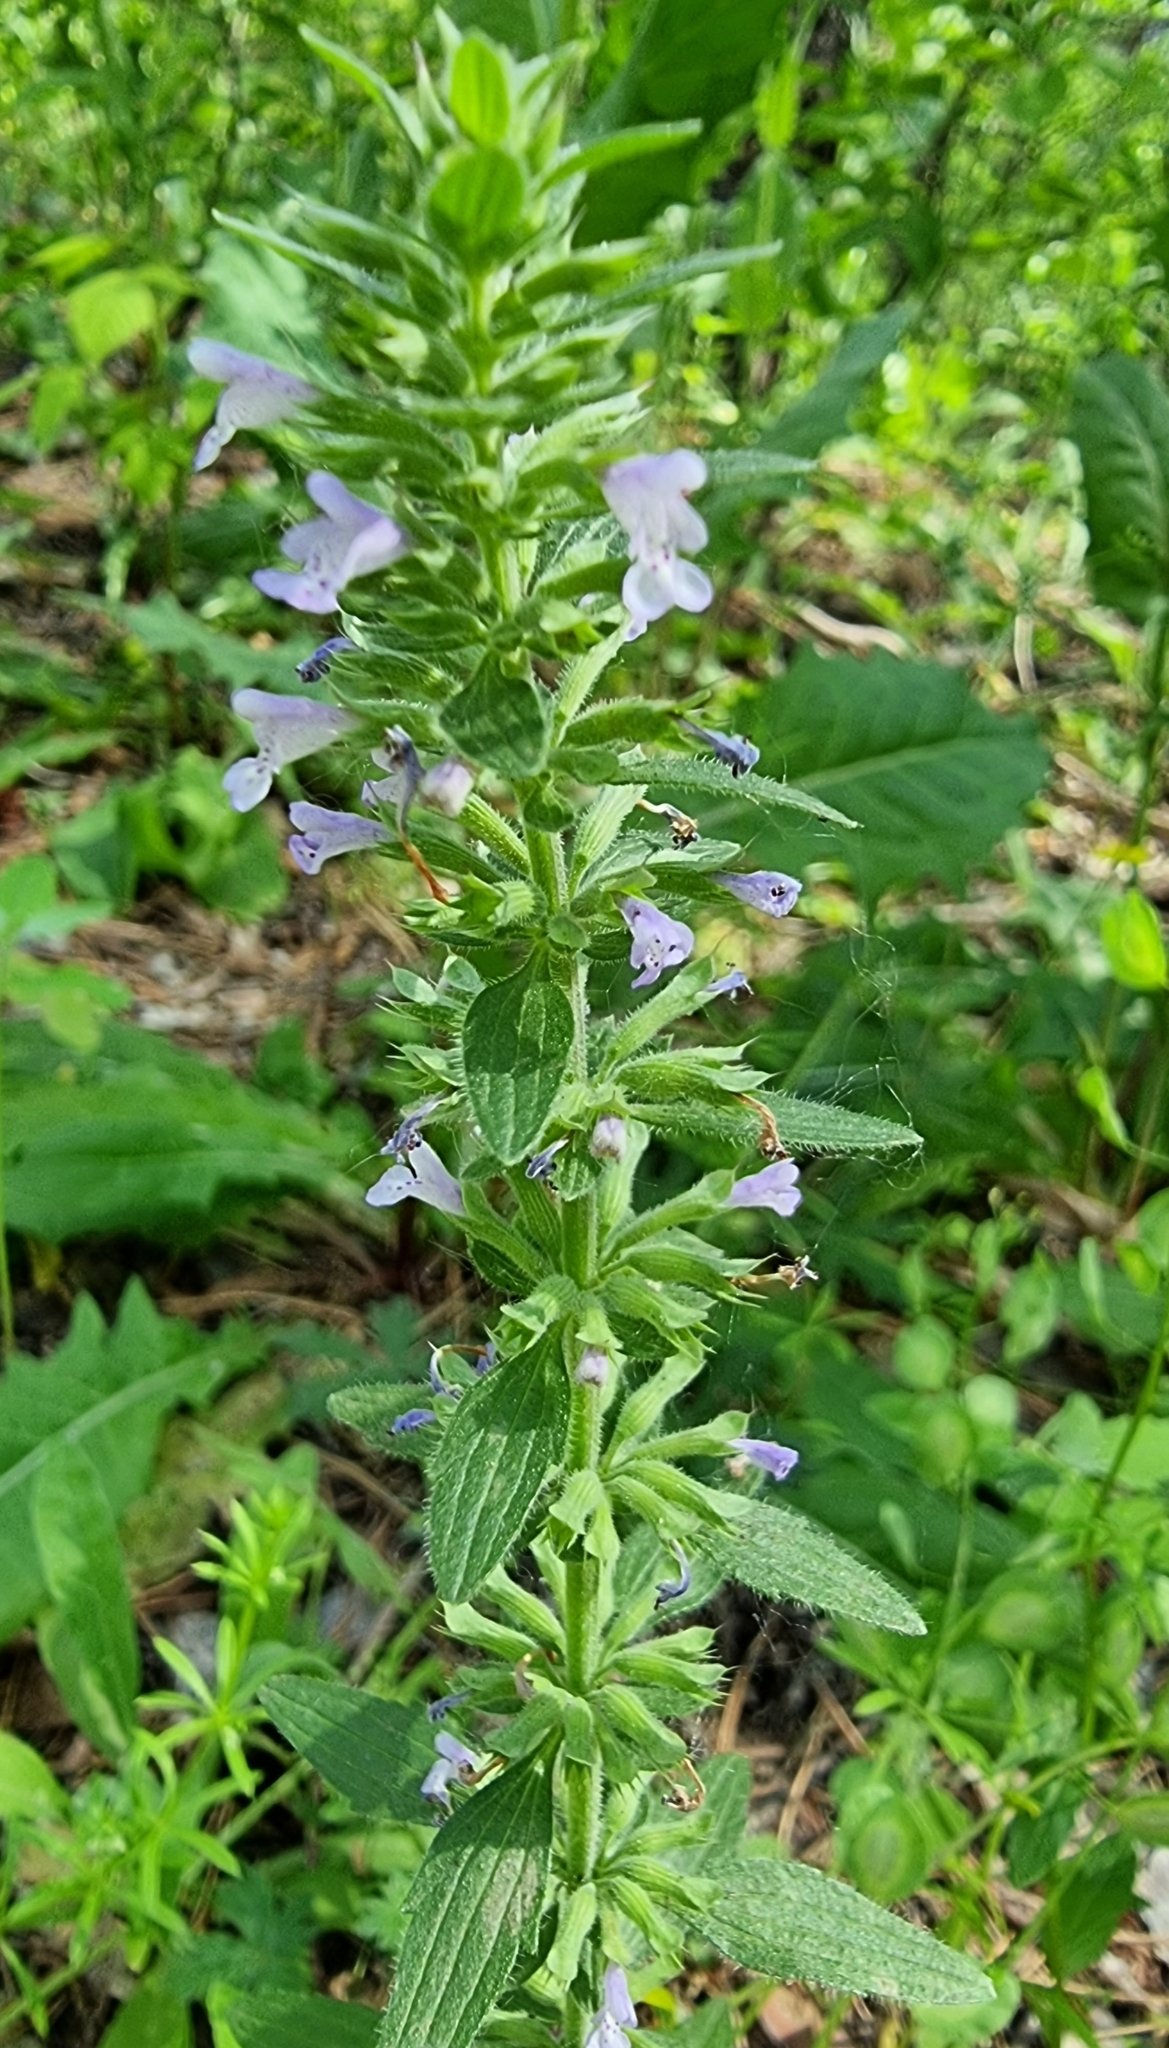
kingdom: Plantae
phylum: Tracheophyta
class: Magnoliopsida
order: Lamiales
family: Lamiaceae
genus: Dracocephalum
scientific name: Dracocephalum thymiflorum
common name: Thymeleaf dragonhead
